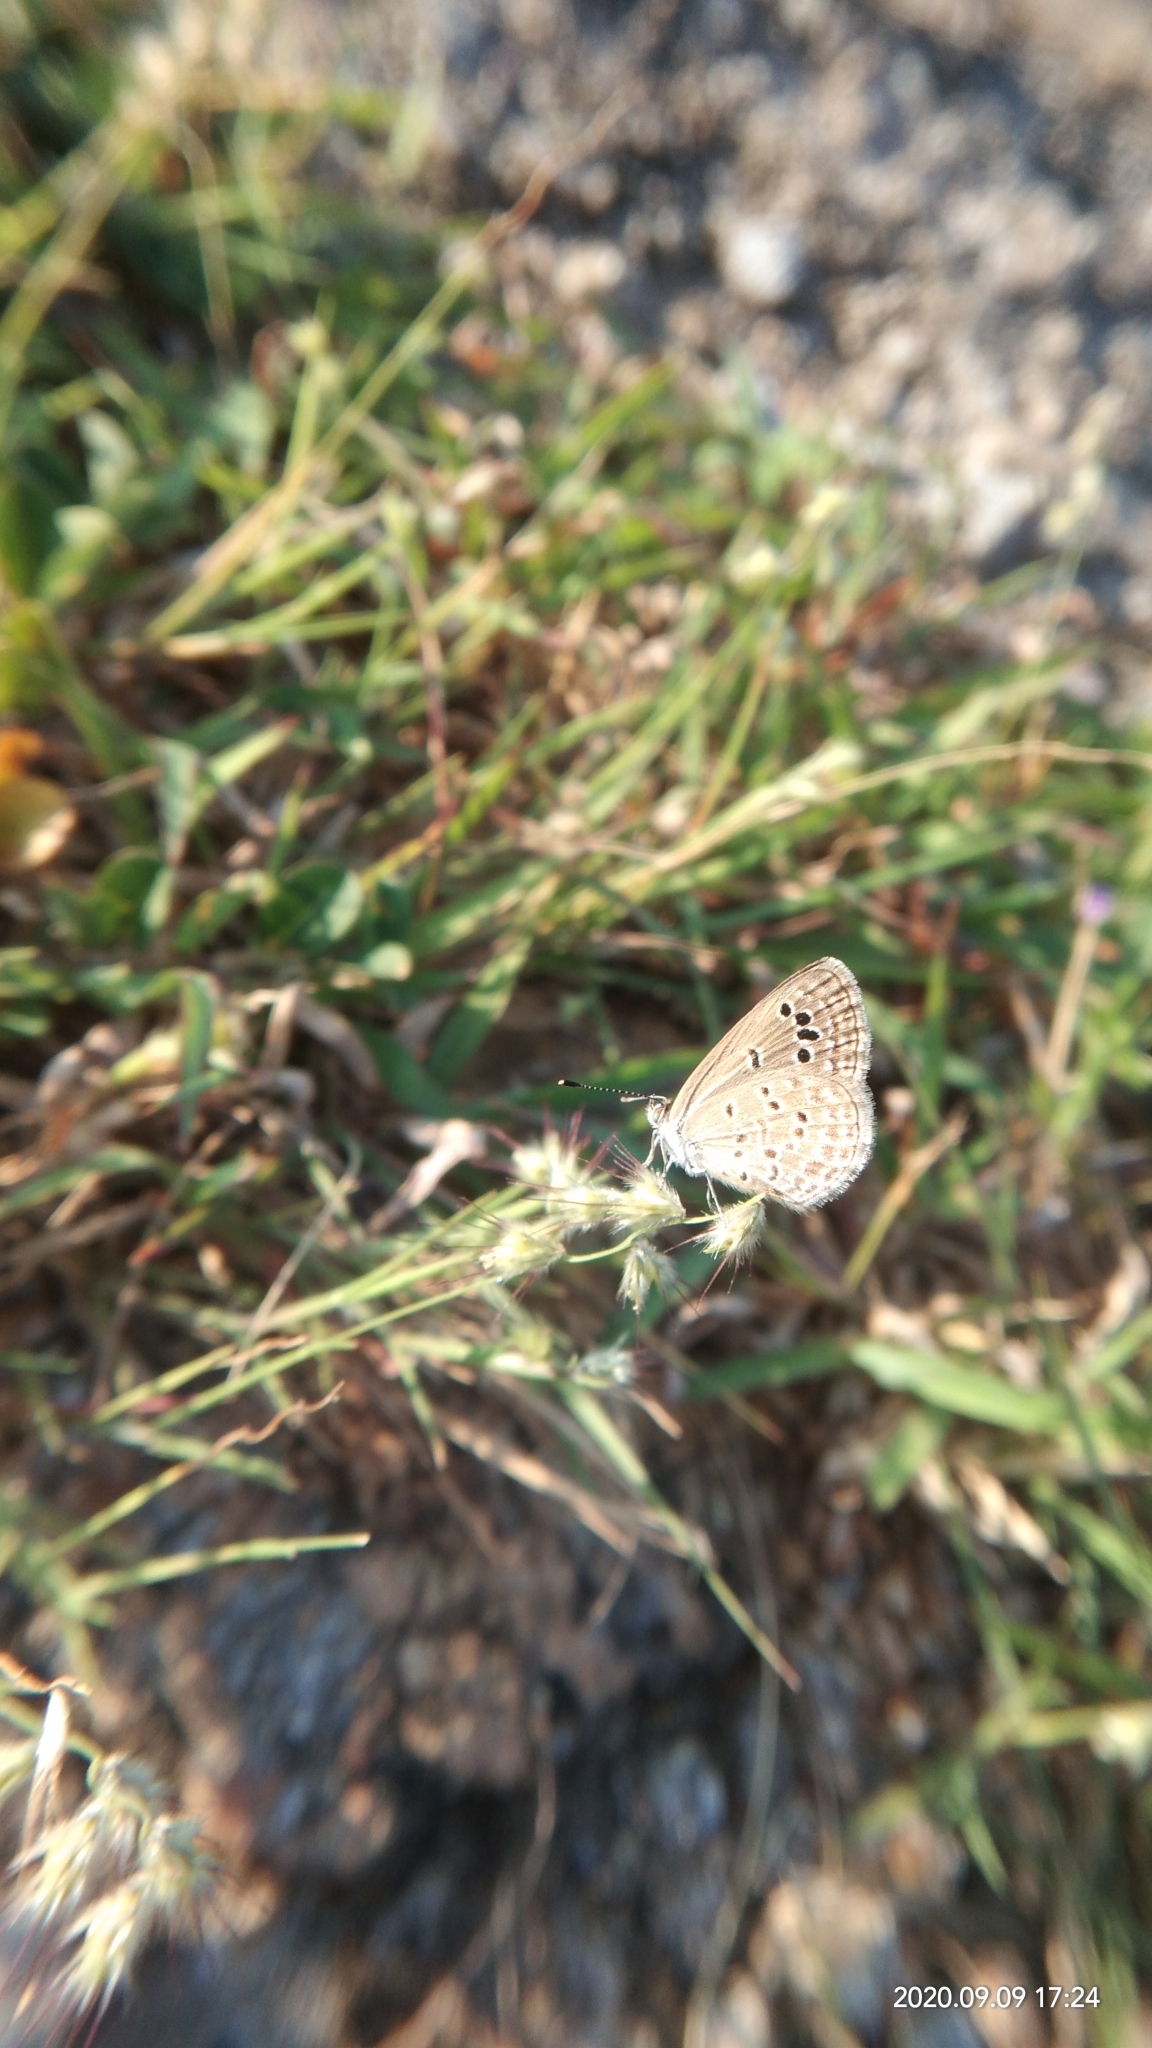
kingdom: Animalia
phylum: Arthropoda
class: Insecta
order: Lepidoptera
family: Lycaenidae
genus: Zizina
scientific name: Zizina otis
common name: Lesser grass blue
